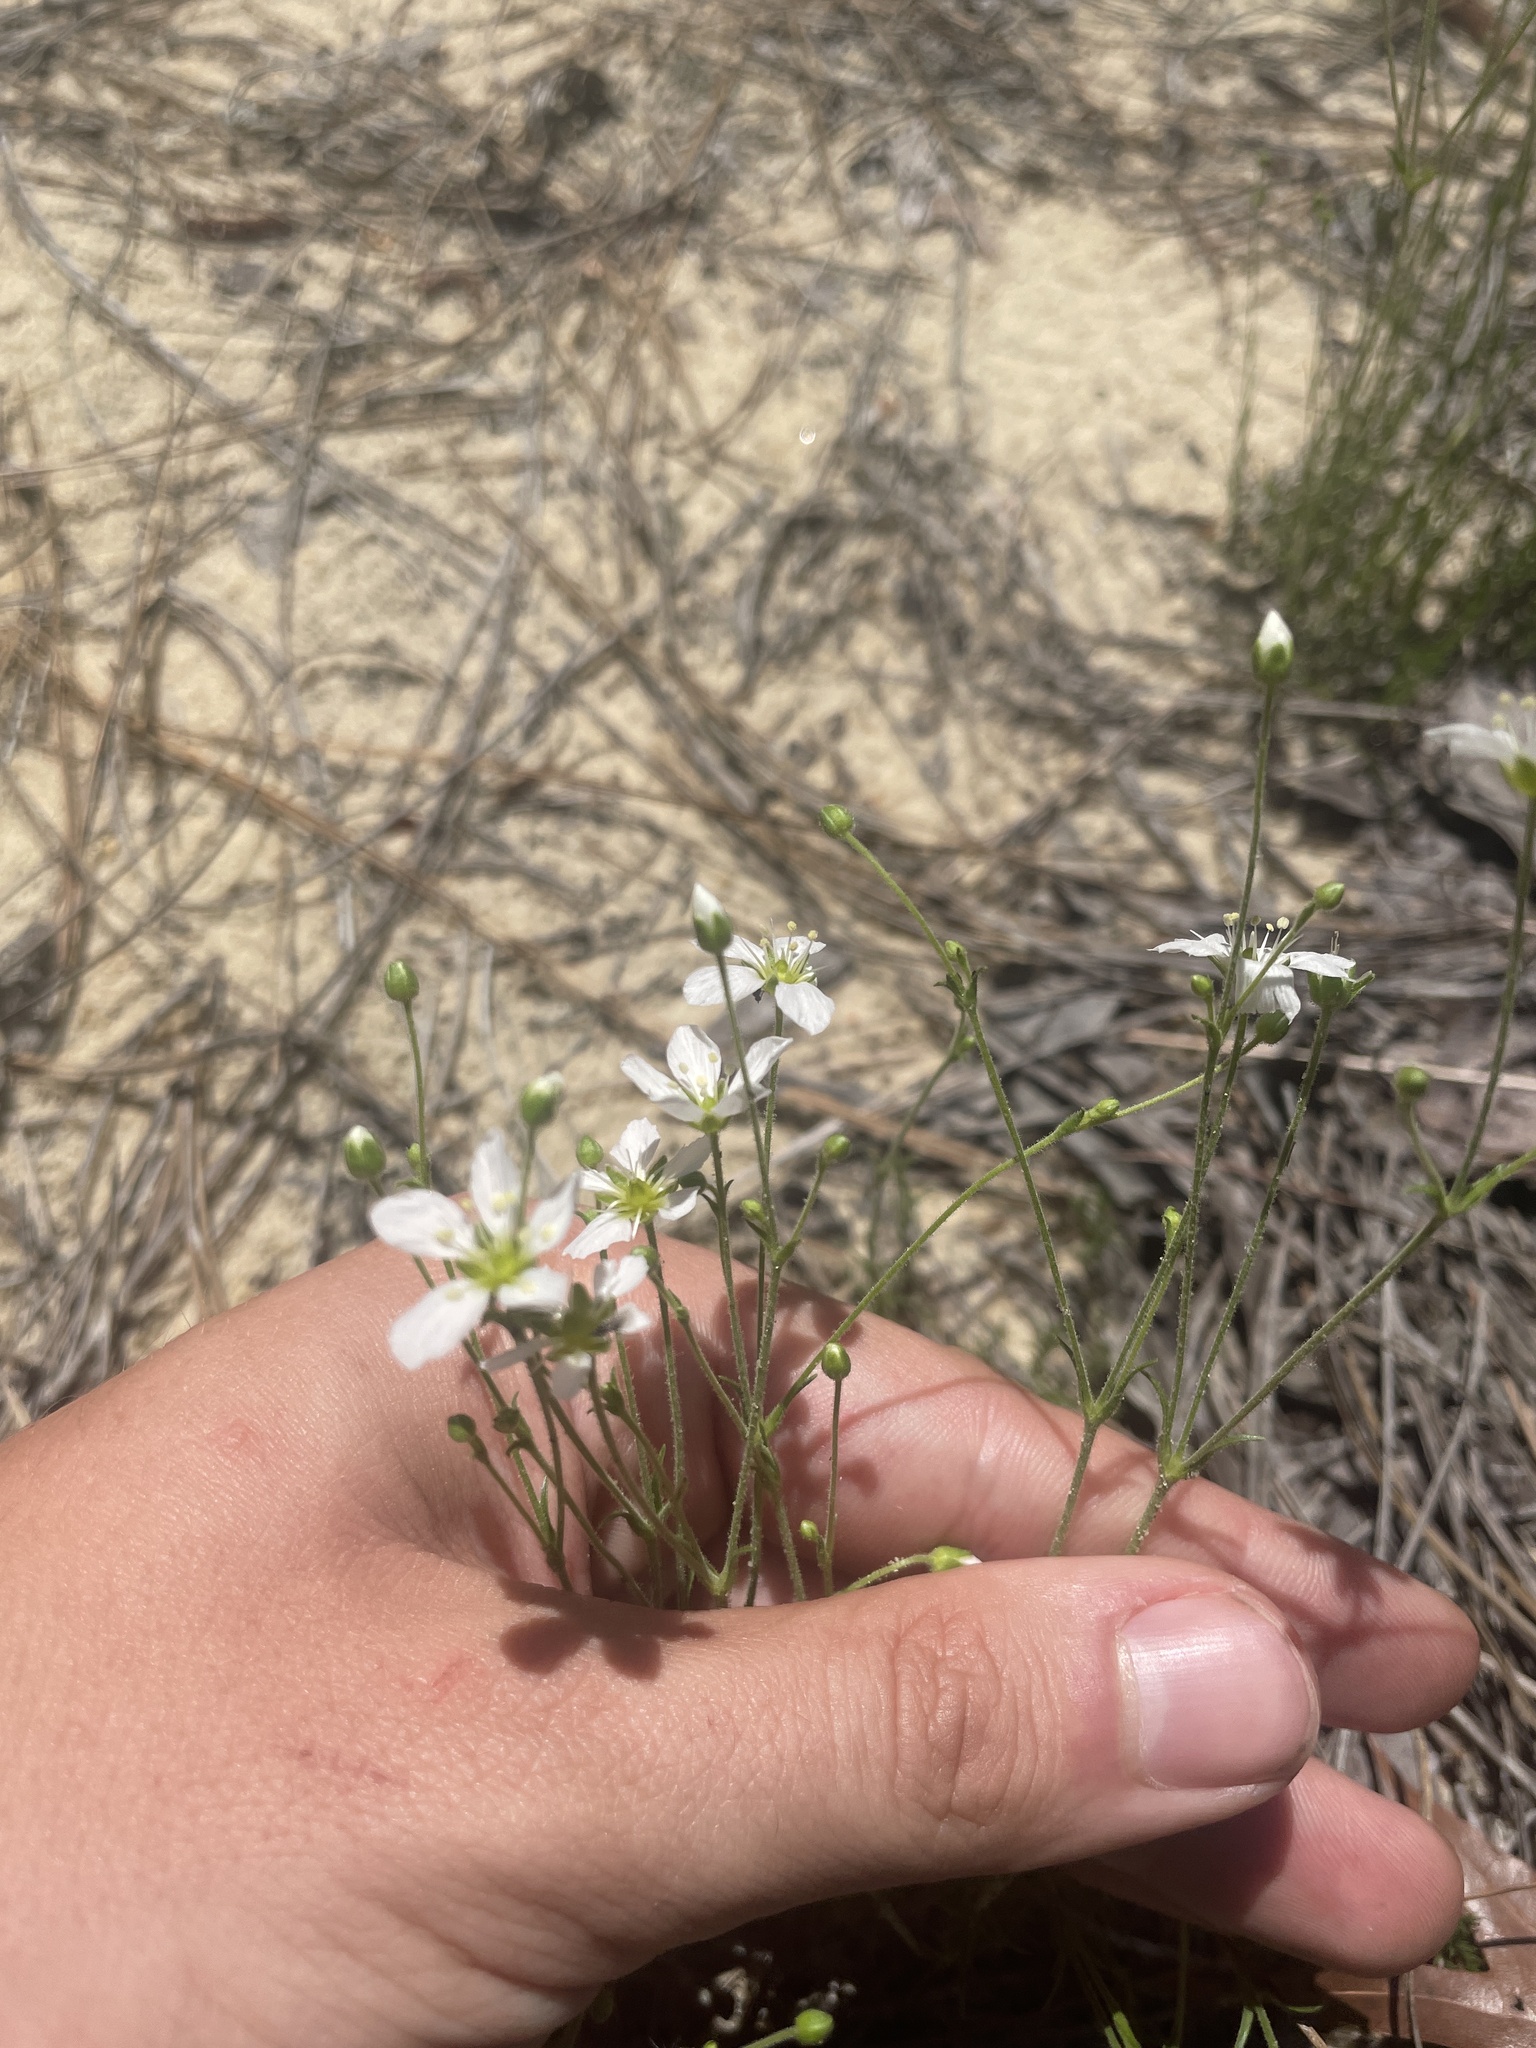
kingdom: Plantae
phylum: Tracheophyta
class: Magnoliopsida
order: Caryophyllales
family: Caryophyllaceae
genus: Geocarpon
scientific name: Geocarpon carolinianum
